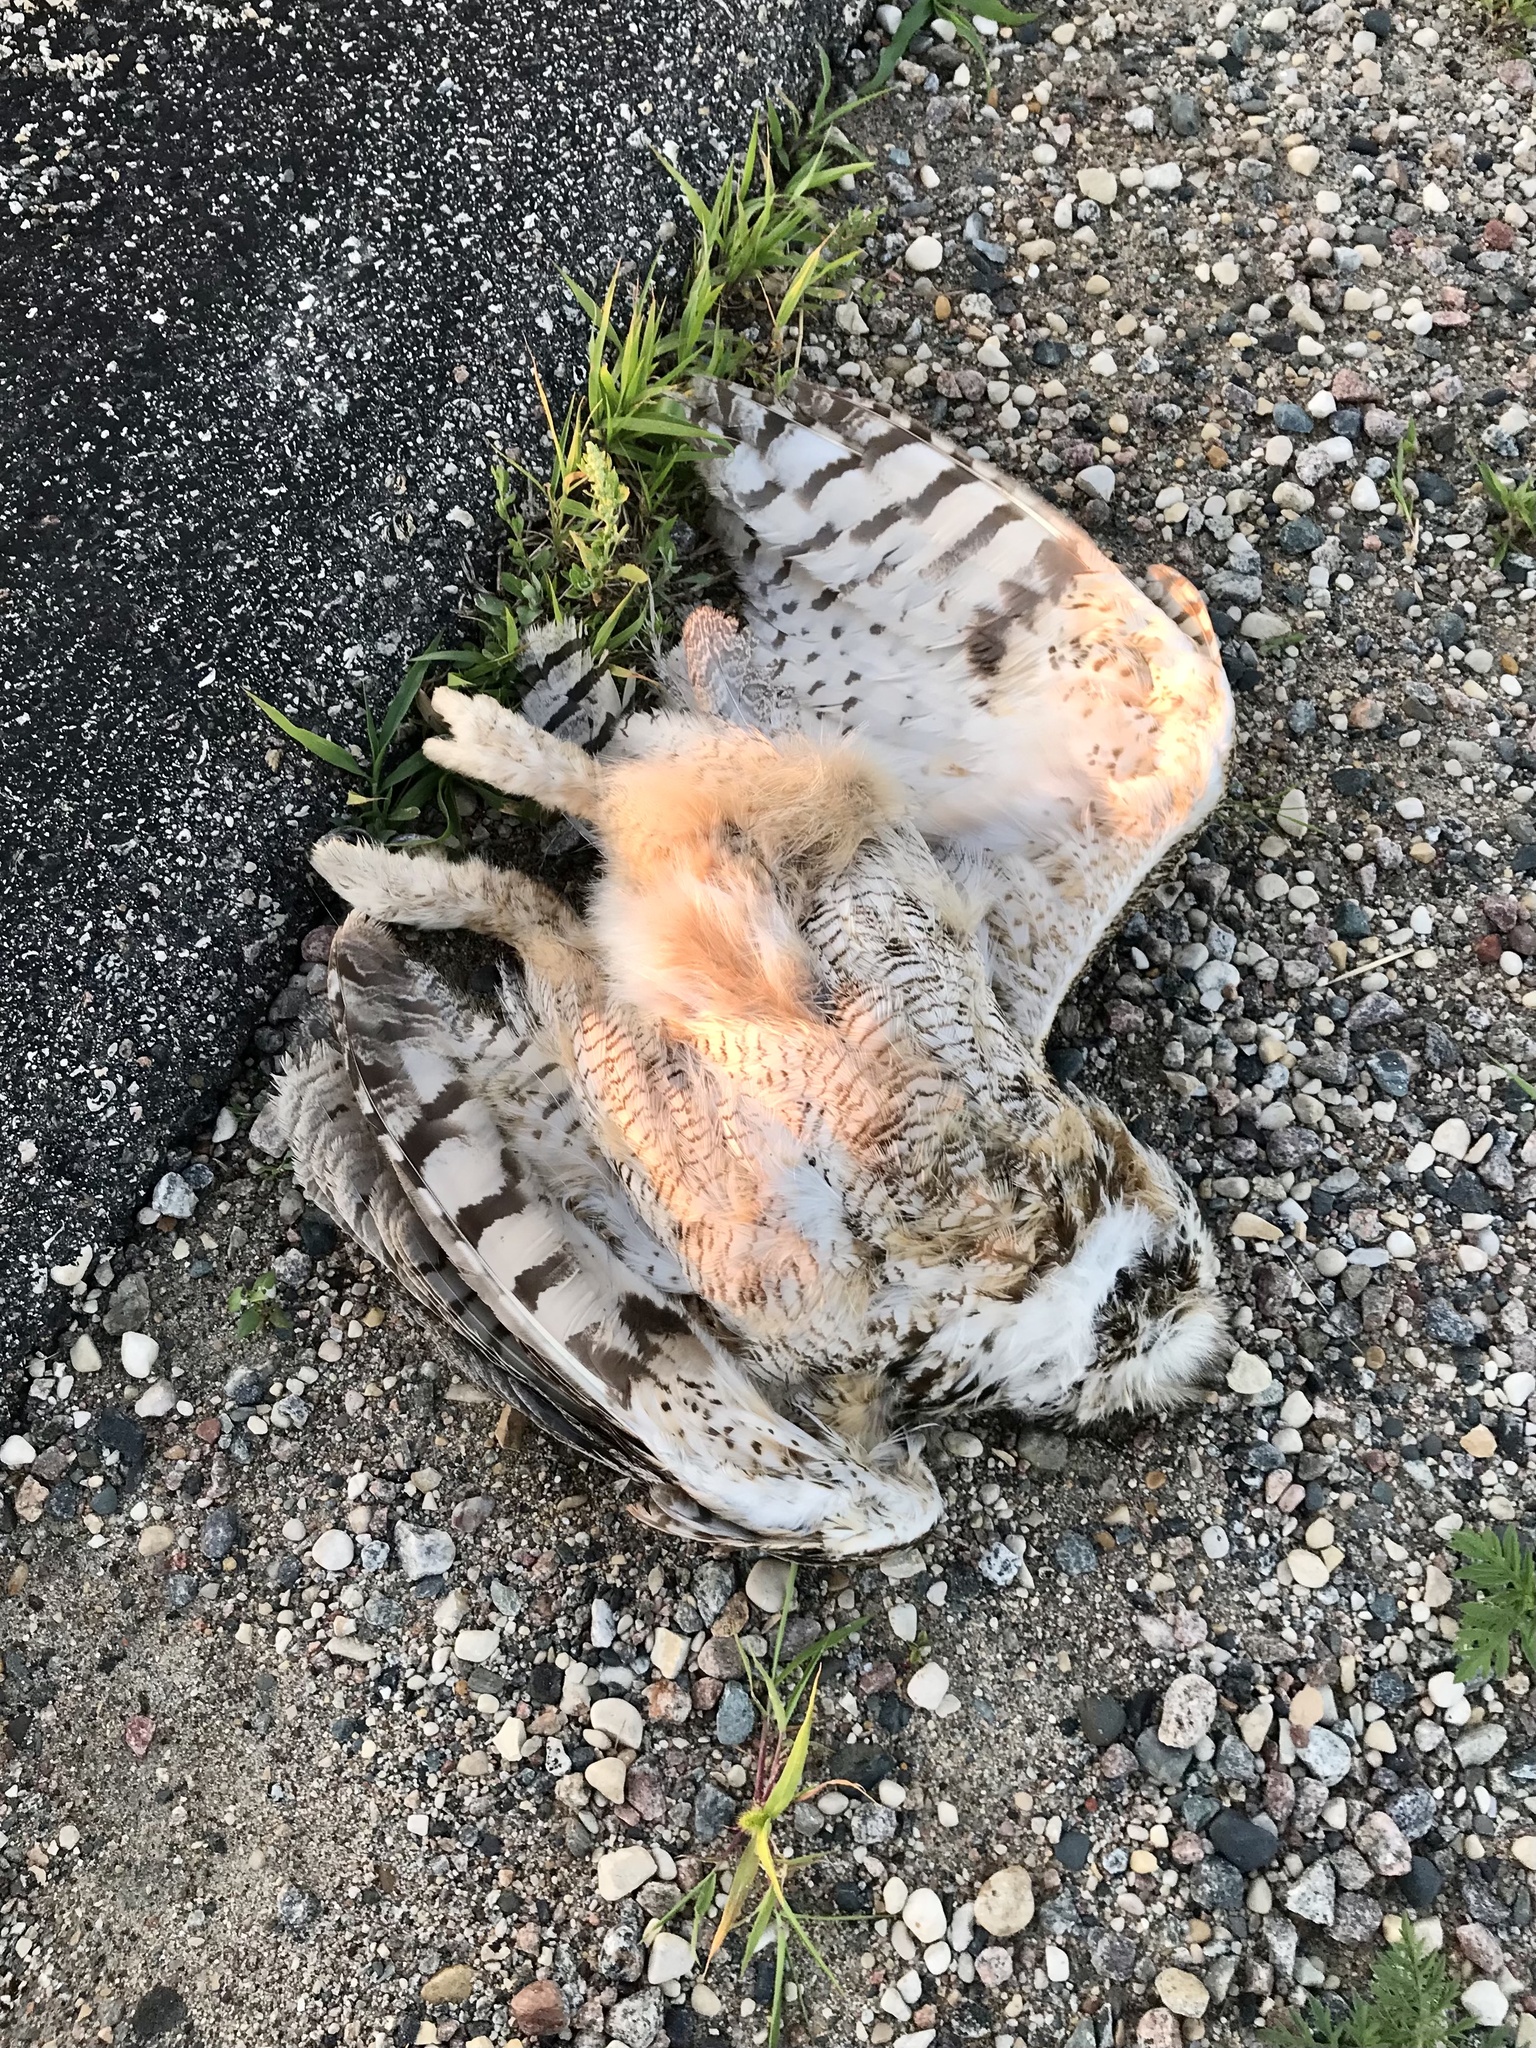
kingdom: Animalia
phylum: Chordata
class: Aves
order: Strigiformes
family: Strigidae
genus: Bubo
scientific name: Bubo virginianus
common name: Great horned owl
